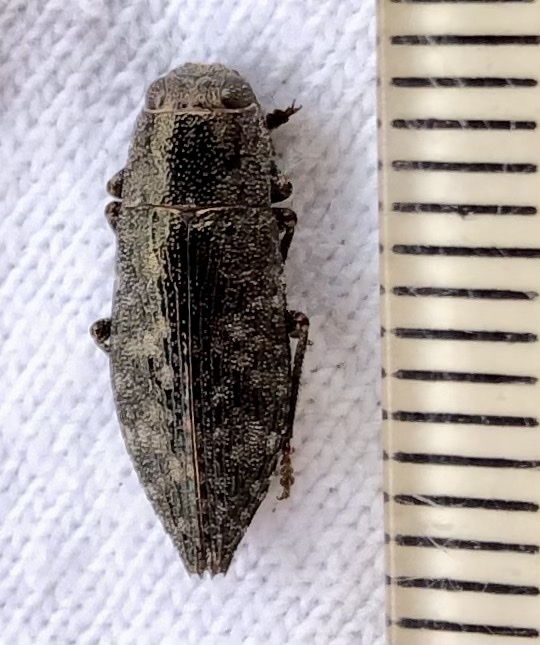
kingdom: Animalia
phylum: Arthropoda
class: Insecta
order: Coleoptera
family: Buprestidae
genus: Dicerca
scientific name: Dicerca obscura
